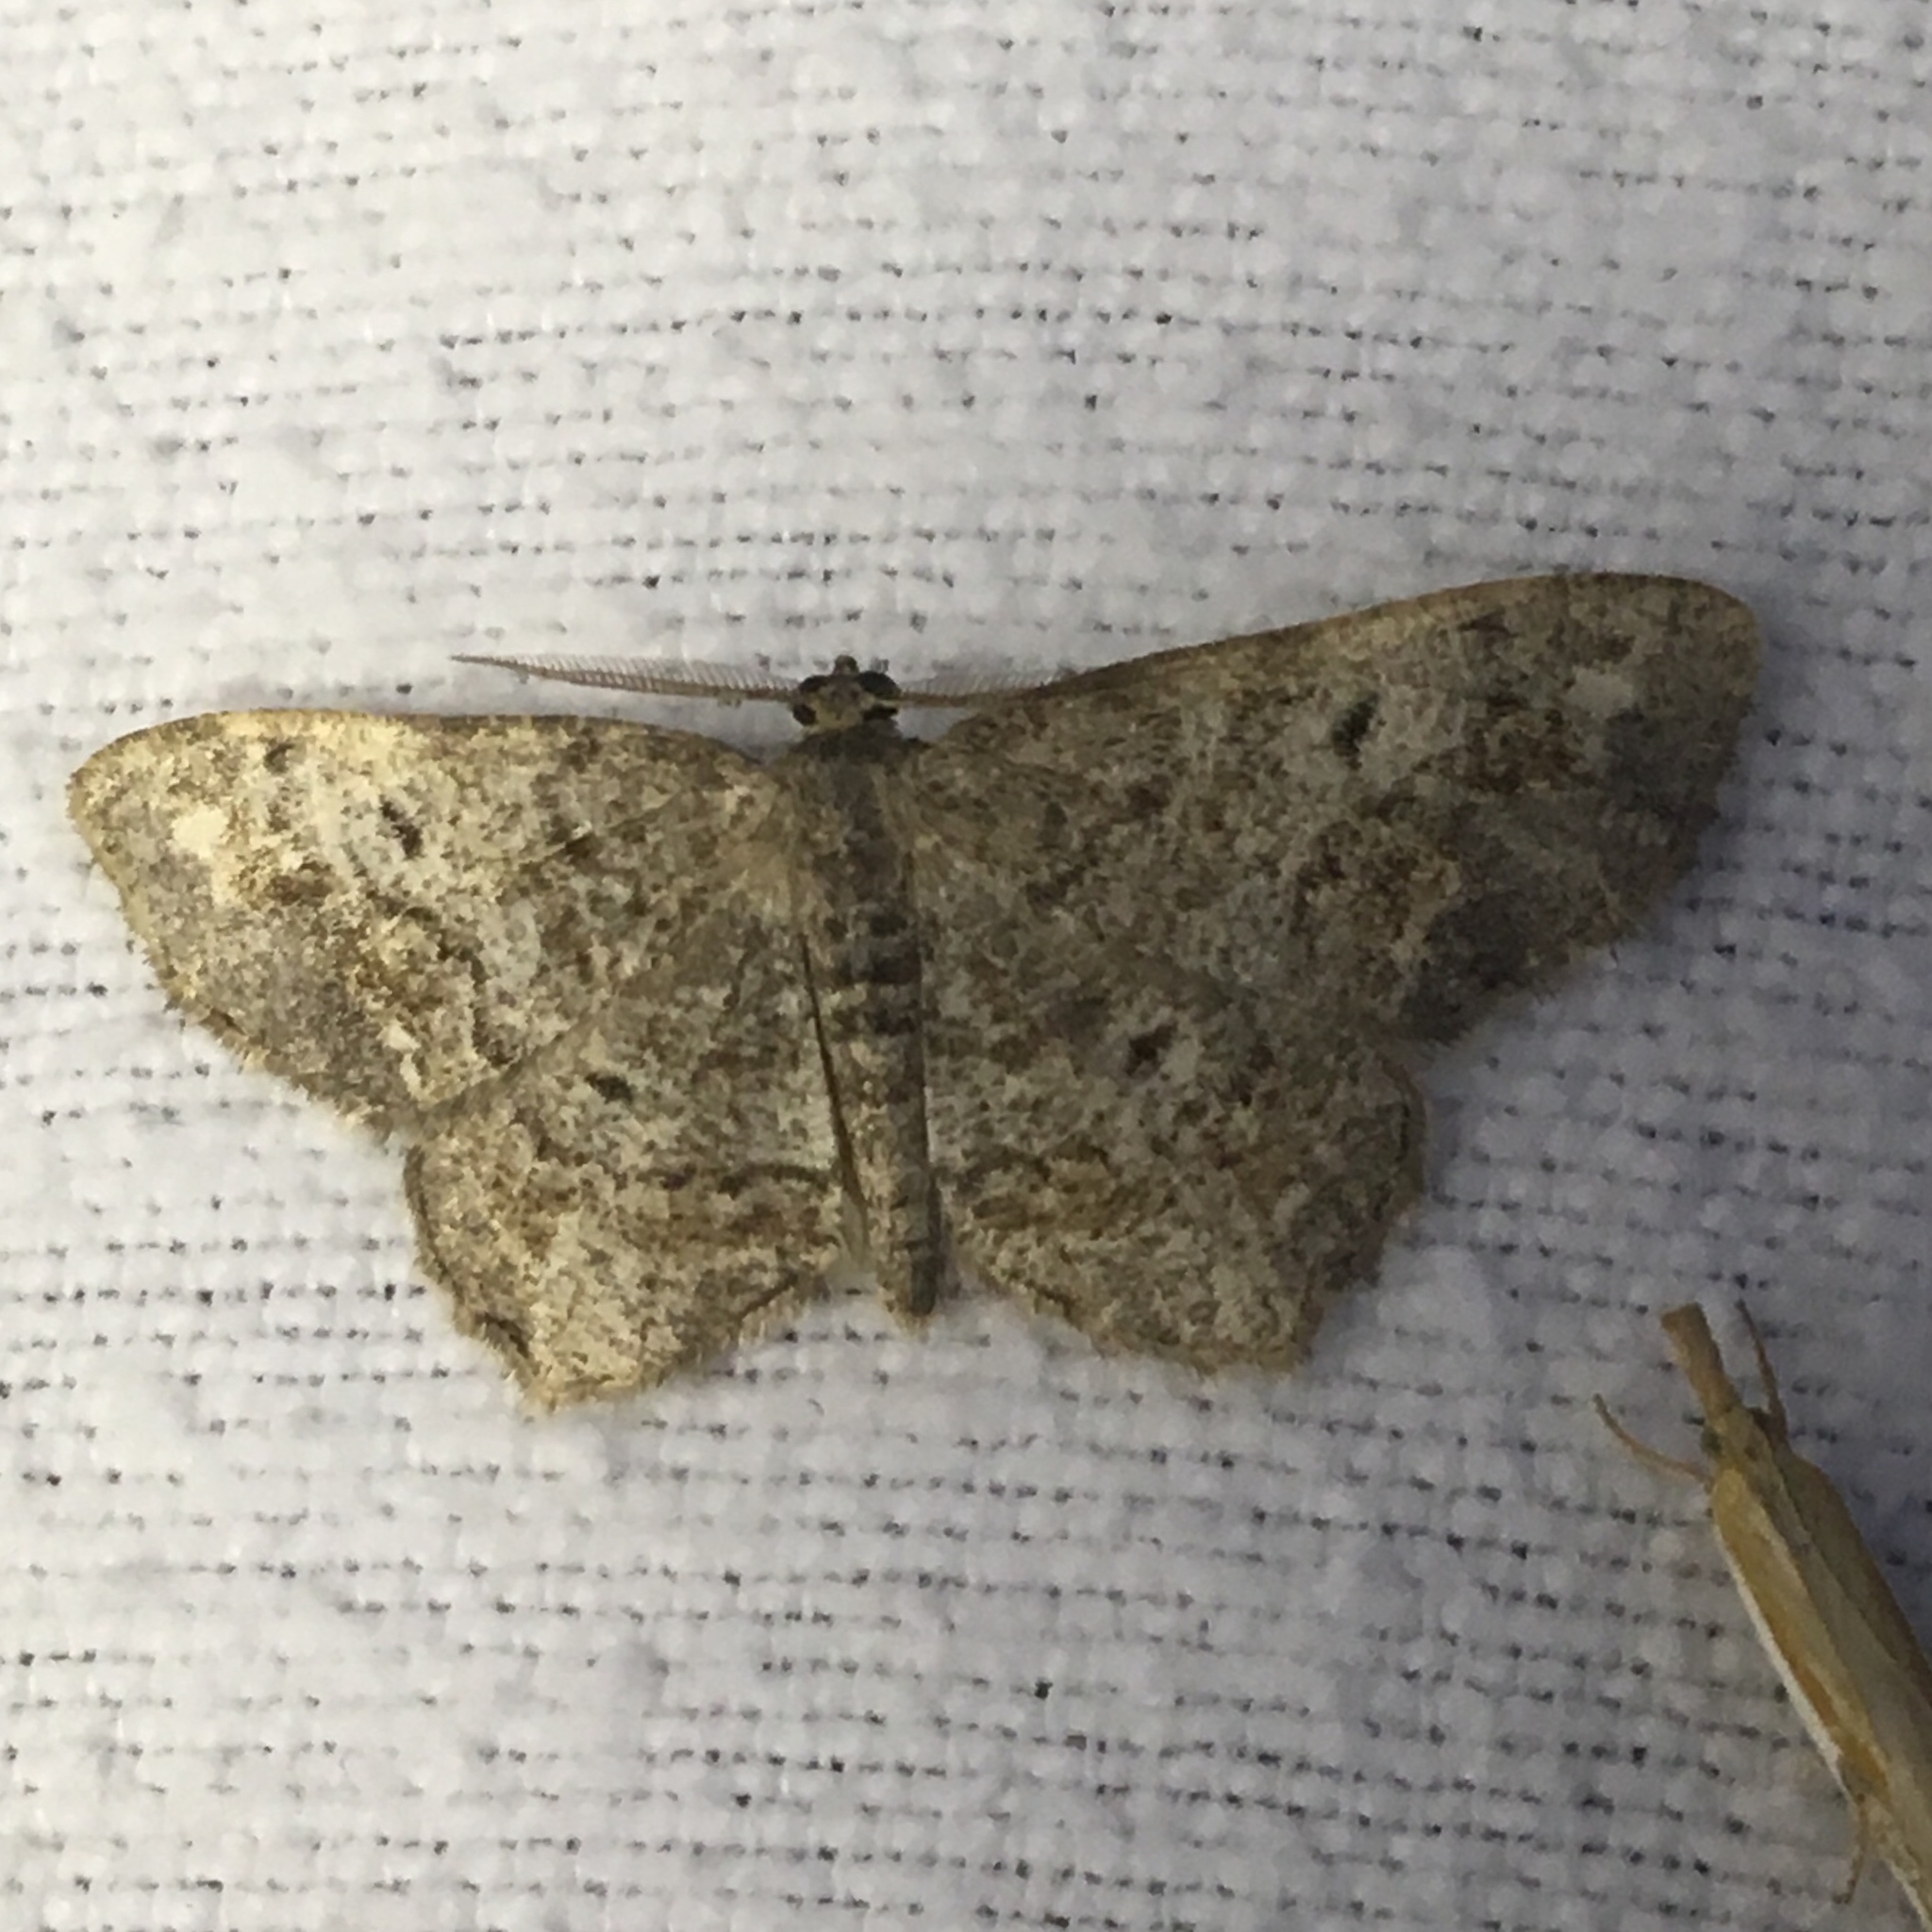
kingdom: Animalia
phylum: Arthropoda
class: Insecta
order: Lepidoptera
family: Geometridae
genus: Hypagyrtis
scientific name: Hypagyrtis unipunctata
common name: One-spotted variant
